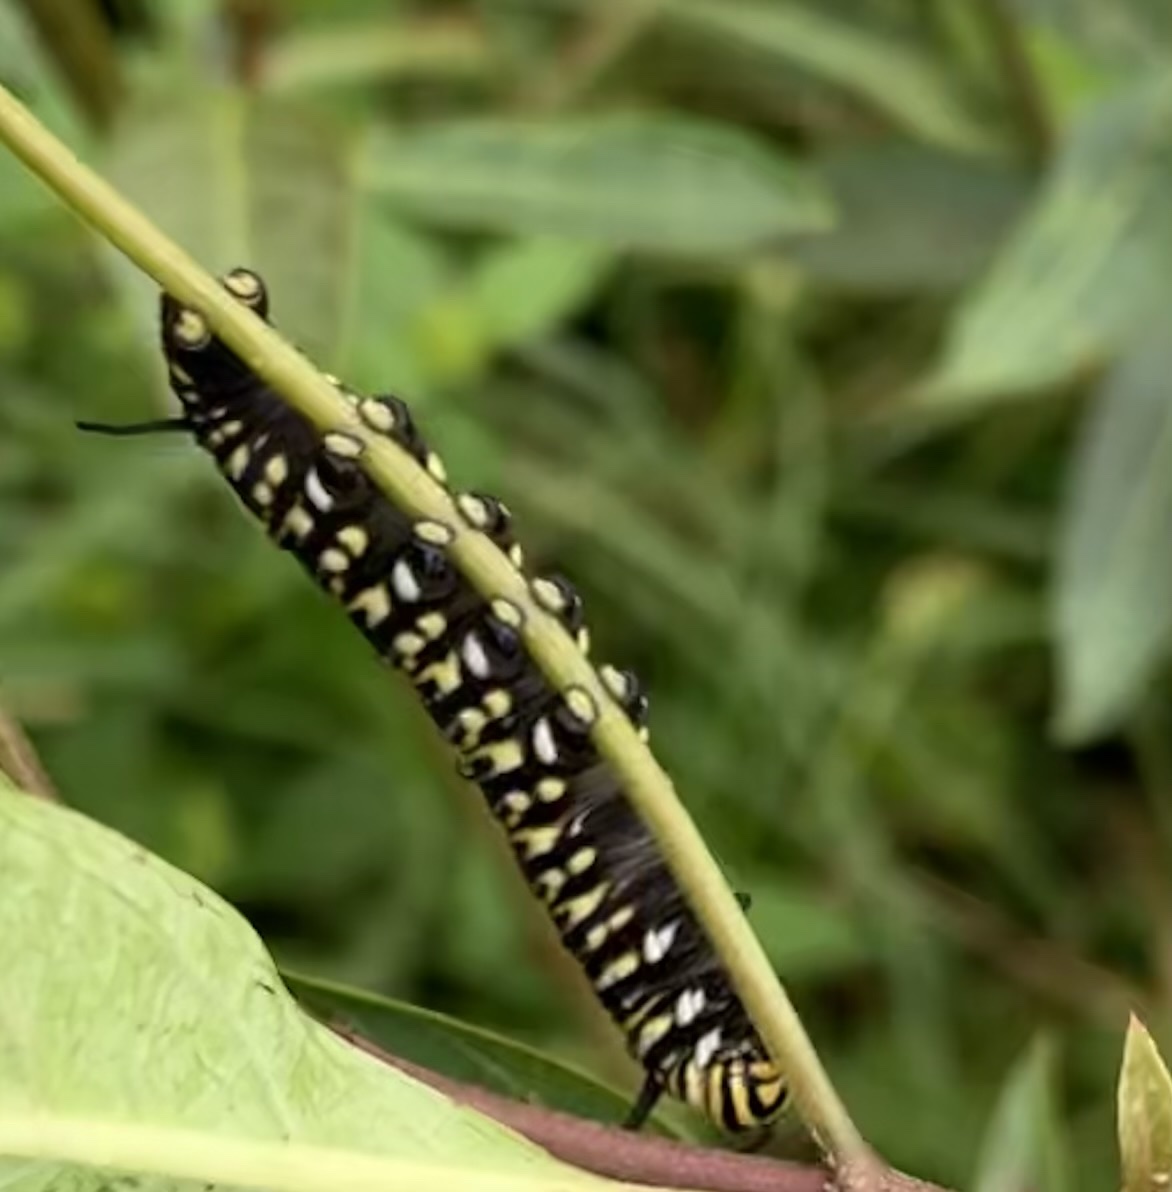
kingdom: Animalia
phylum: Arthropoda
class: Insecta
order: Lepidoptera
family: Nymphalidae
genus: Danaus
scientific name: Danaus plexippus
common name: Monarch
